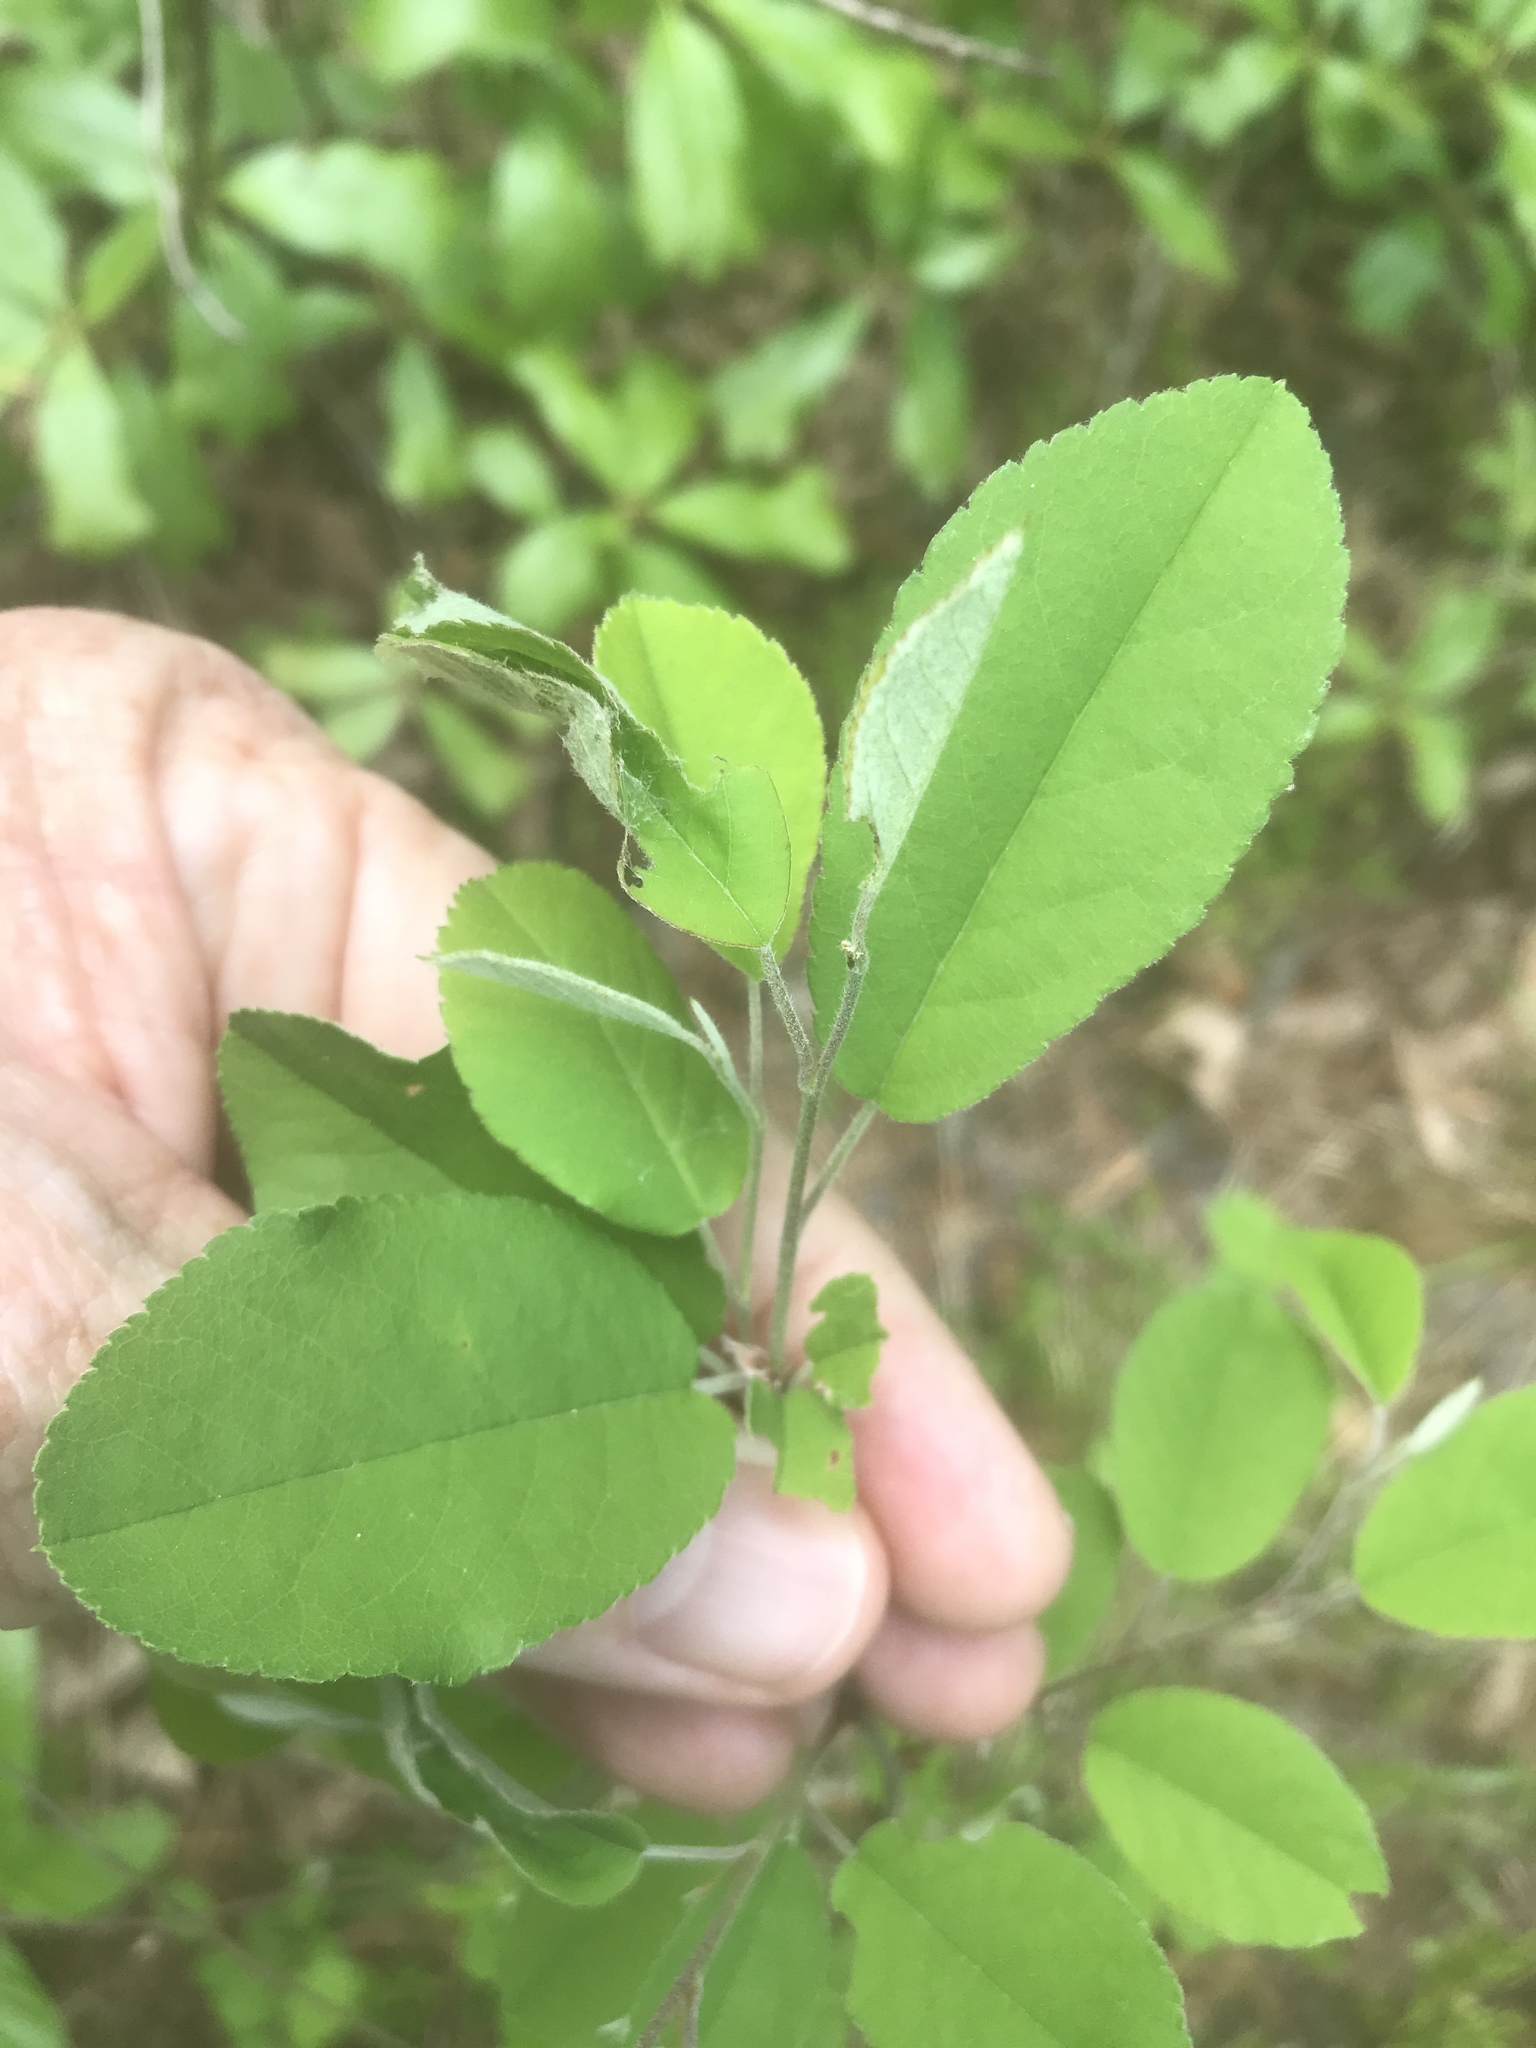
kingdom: Plantae
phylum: Tracheophyta
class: Magnoliopsida
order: Rosales
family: Rosaceae
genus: Amelanchier
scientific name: Amelanchier canadensis
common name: Thicket serviceberry
